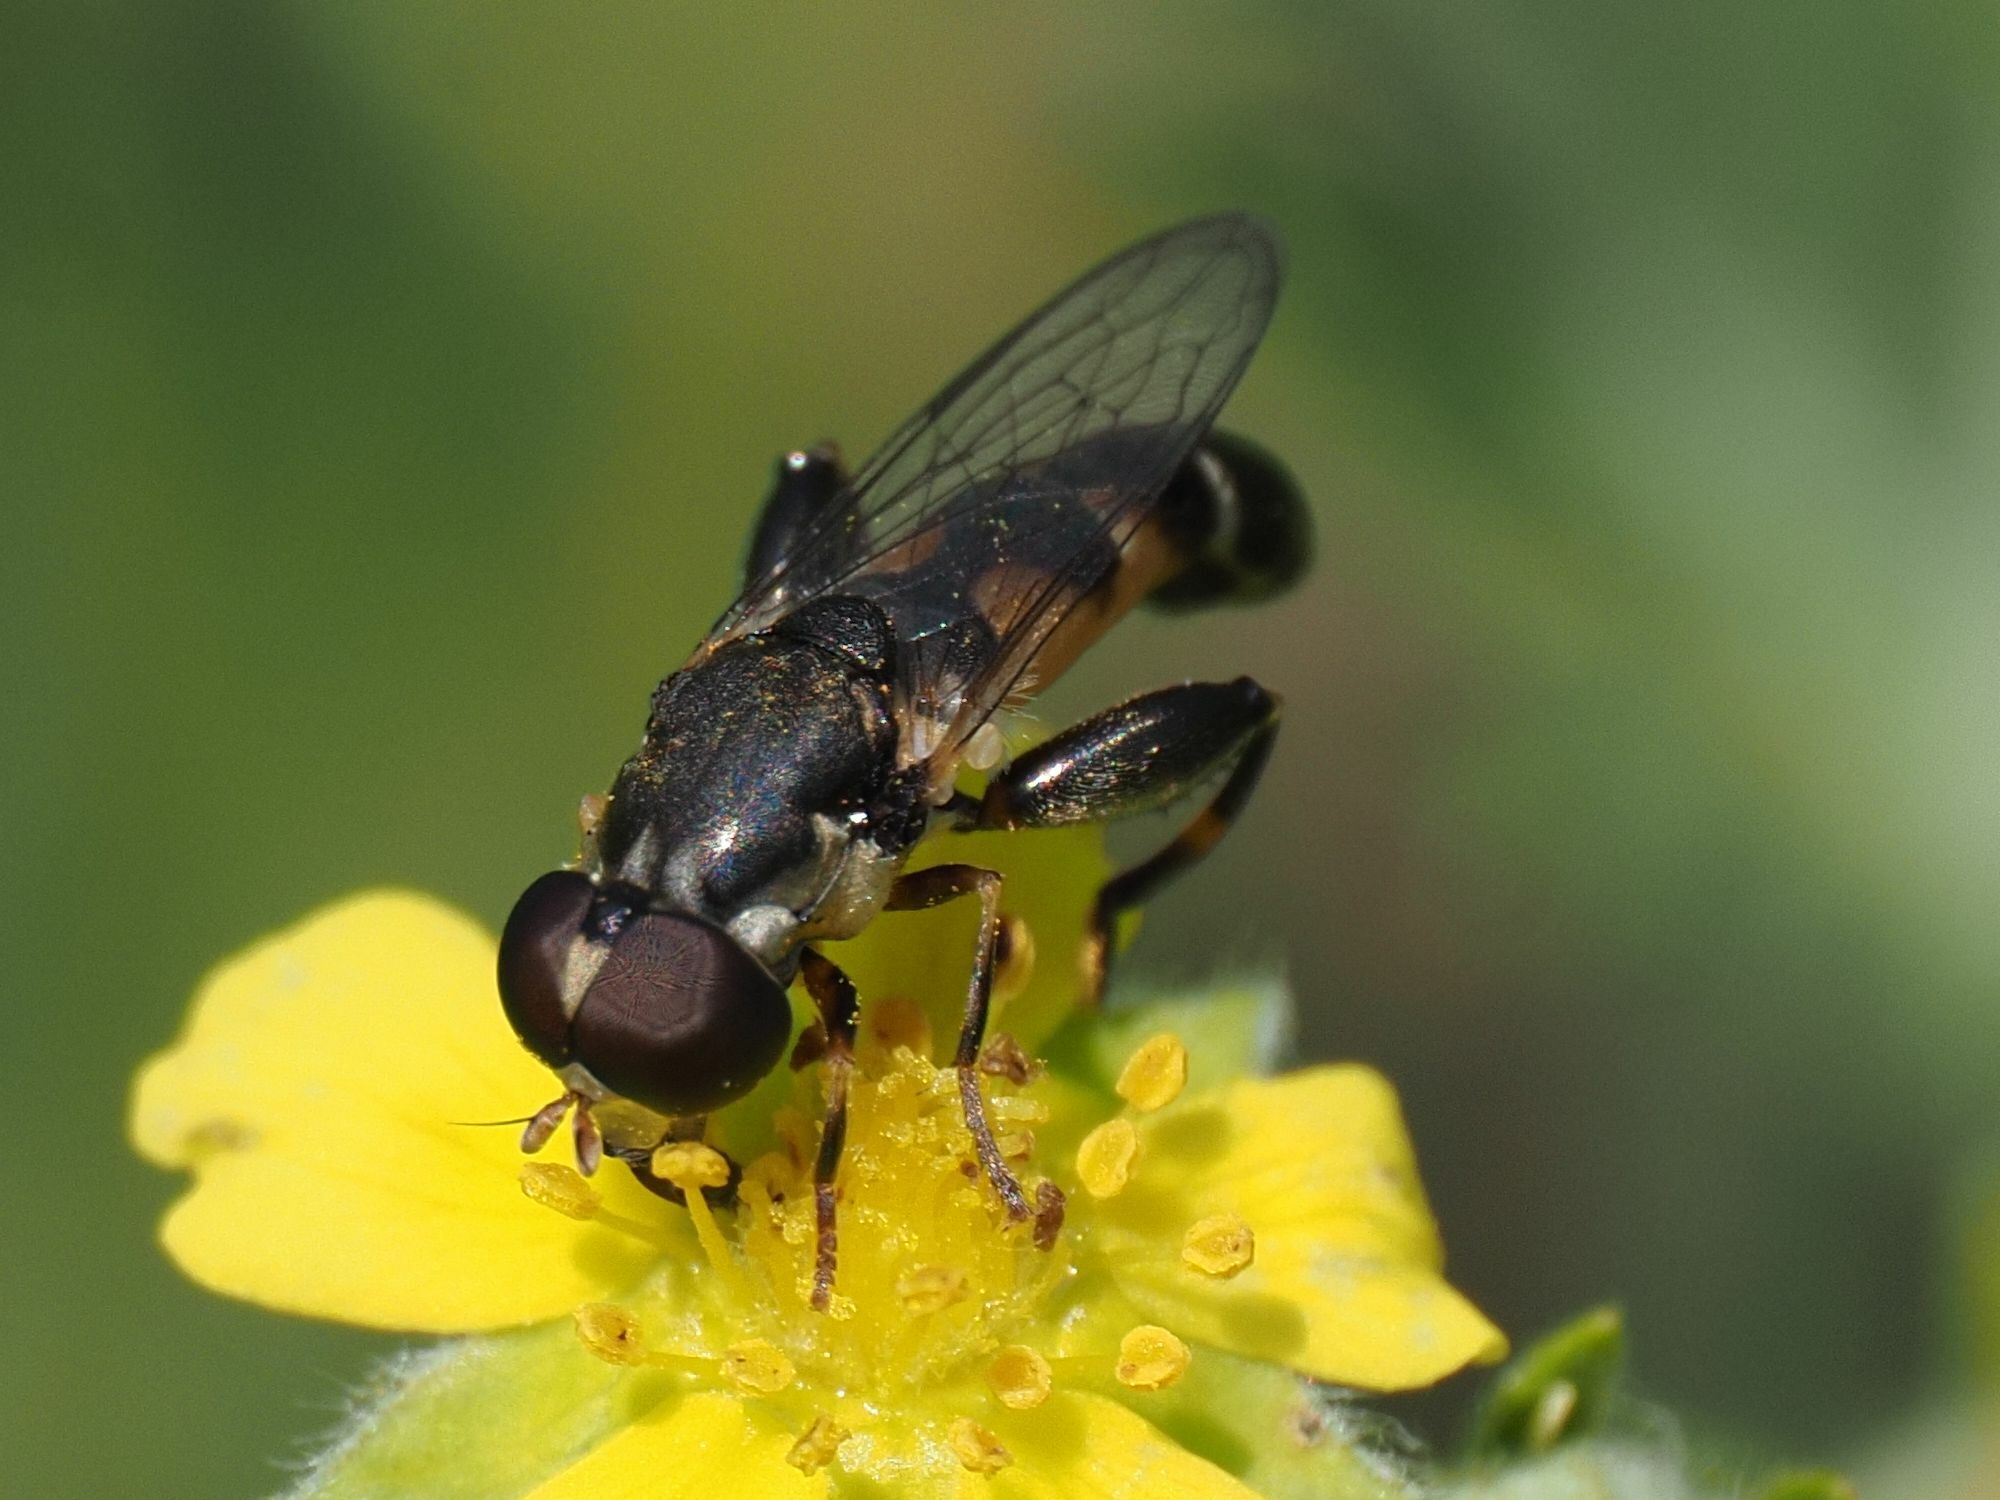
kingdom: Animalia
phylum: Arthropoda
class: Insecta
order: Diptera
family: Syrphidae
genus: Syritta
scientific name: Syritta pipiens
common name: Hover fly
